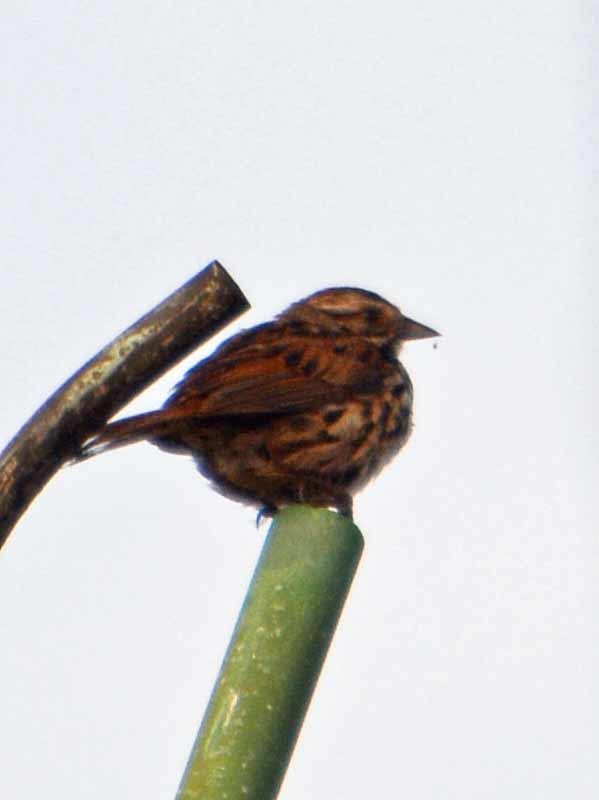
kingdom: Animalia
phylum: Chordata
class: Aves
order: Passeriformes
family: Passerellidae
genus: Melospiza
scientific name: Melospiza melodia
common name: Song sparrow
